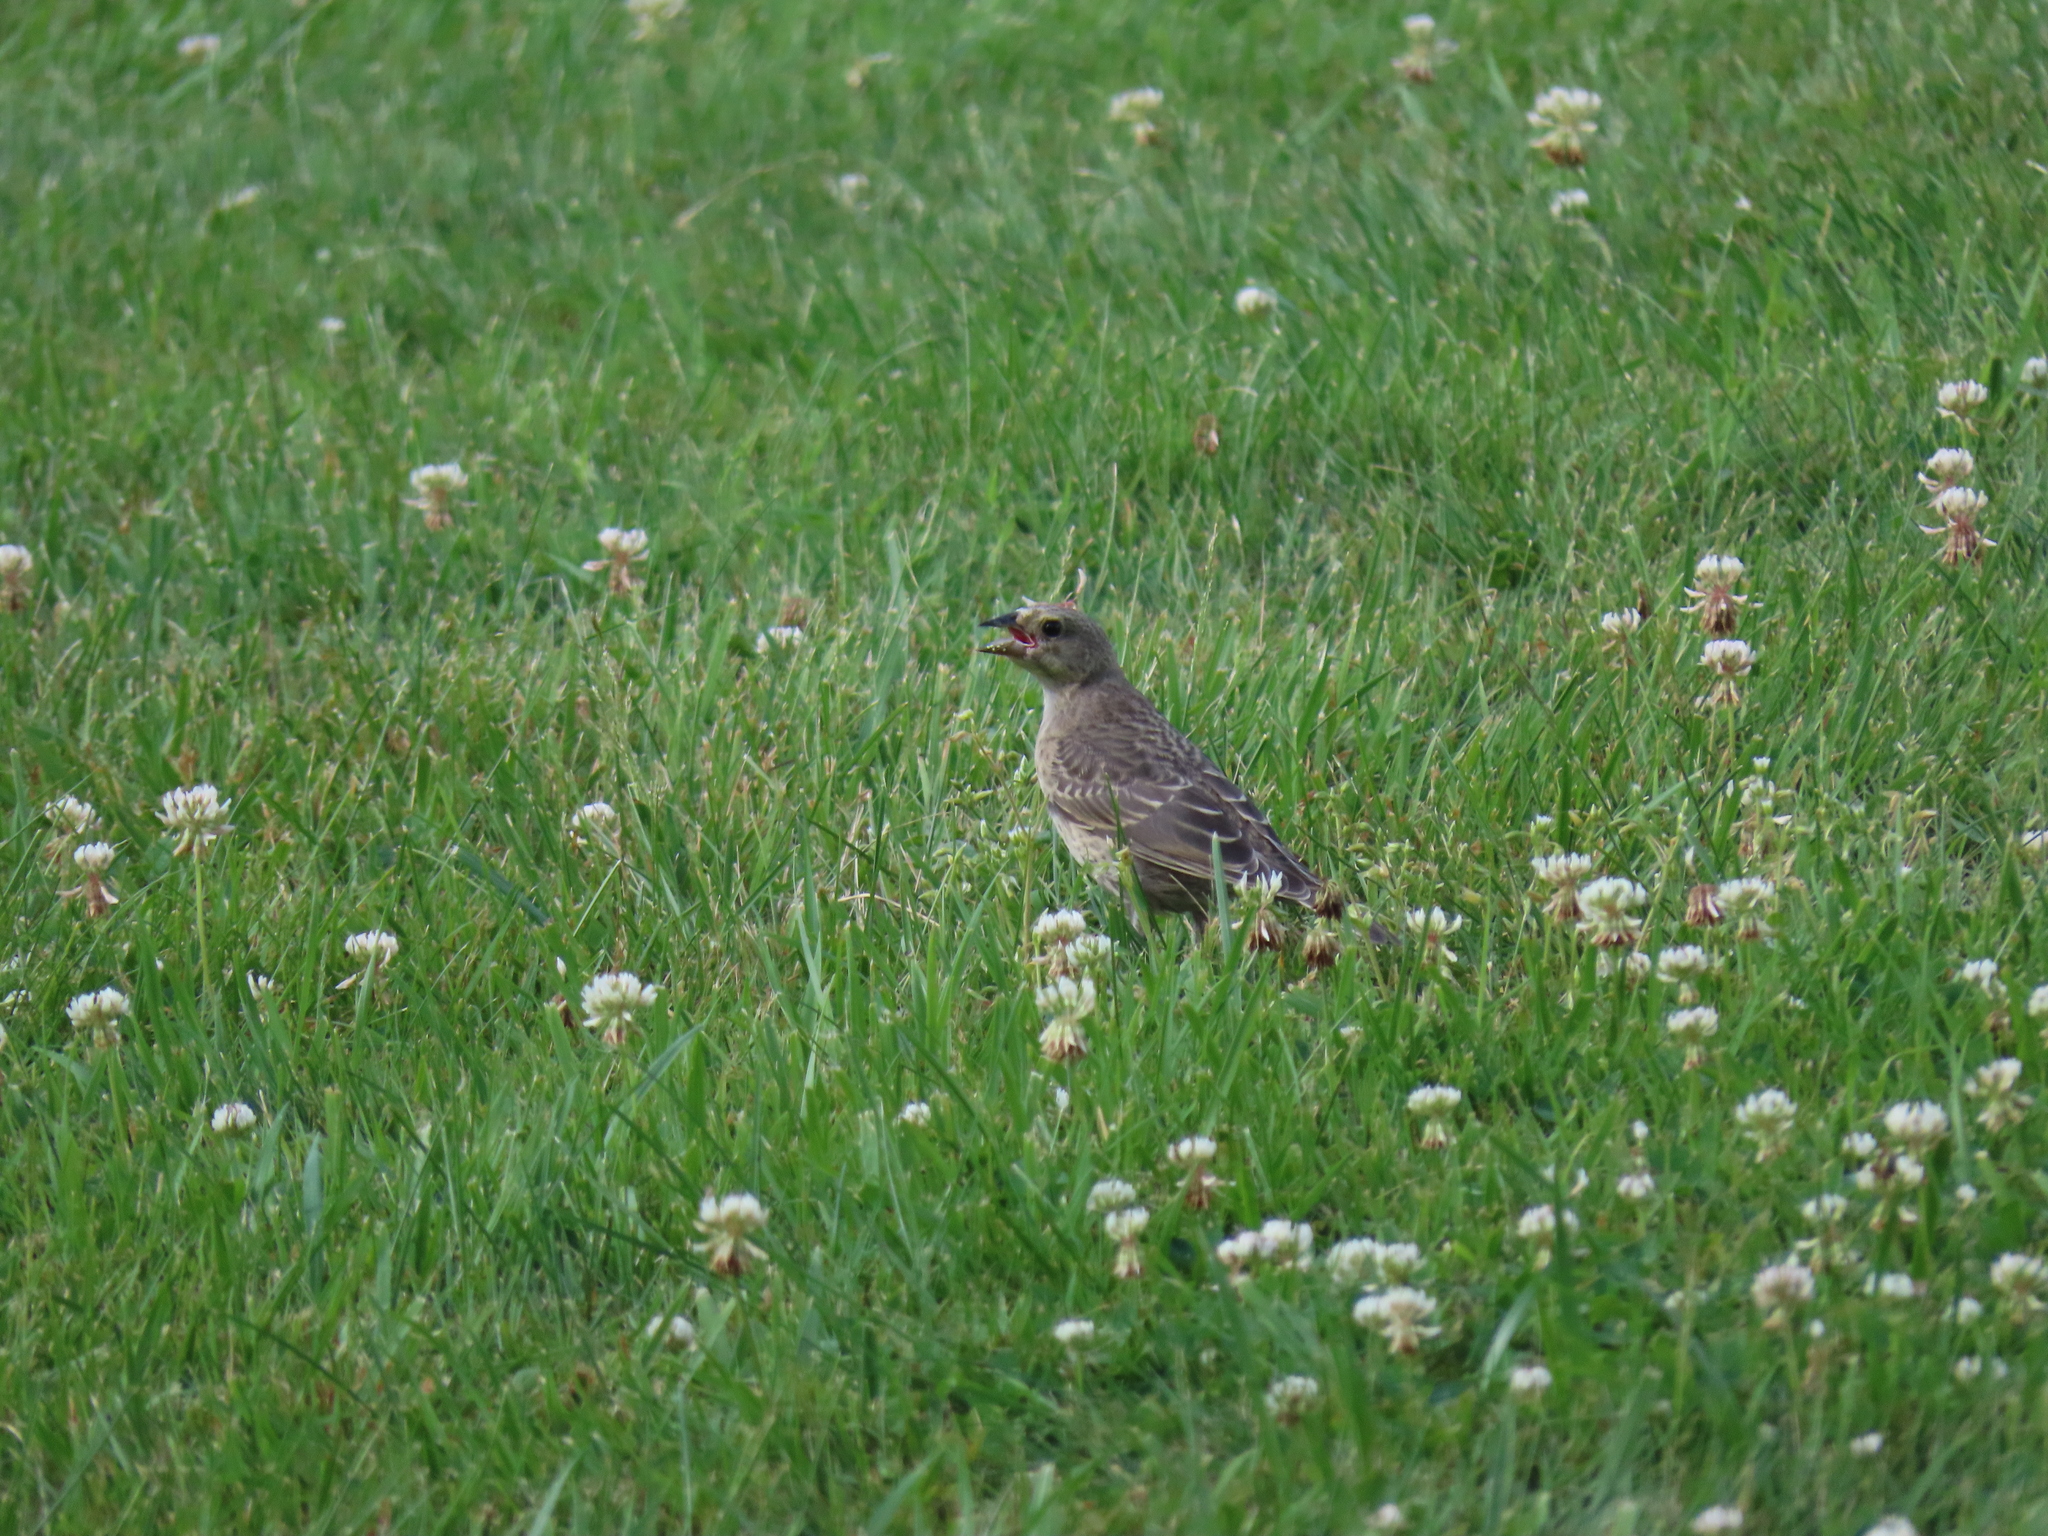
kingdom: Animalia
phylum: Chordata
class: Aves
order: Passeriformes
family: Icteridae
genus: Molothrus
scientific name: Molothrus ater
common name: Brown-headed cowbird
